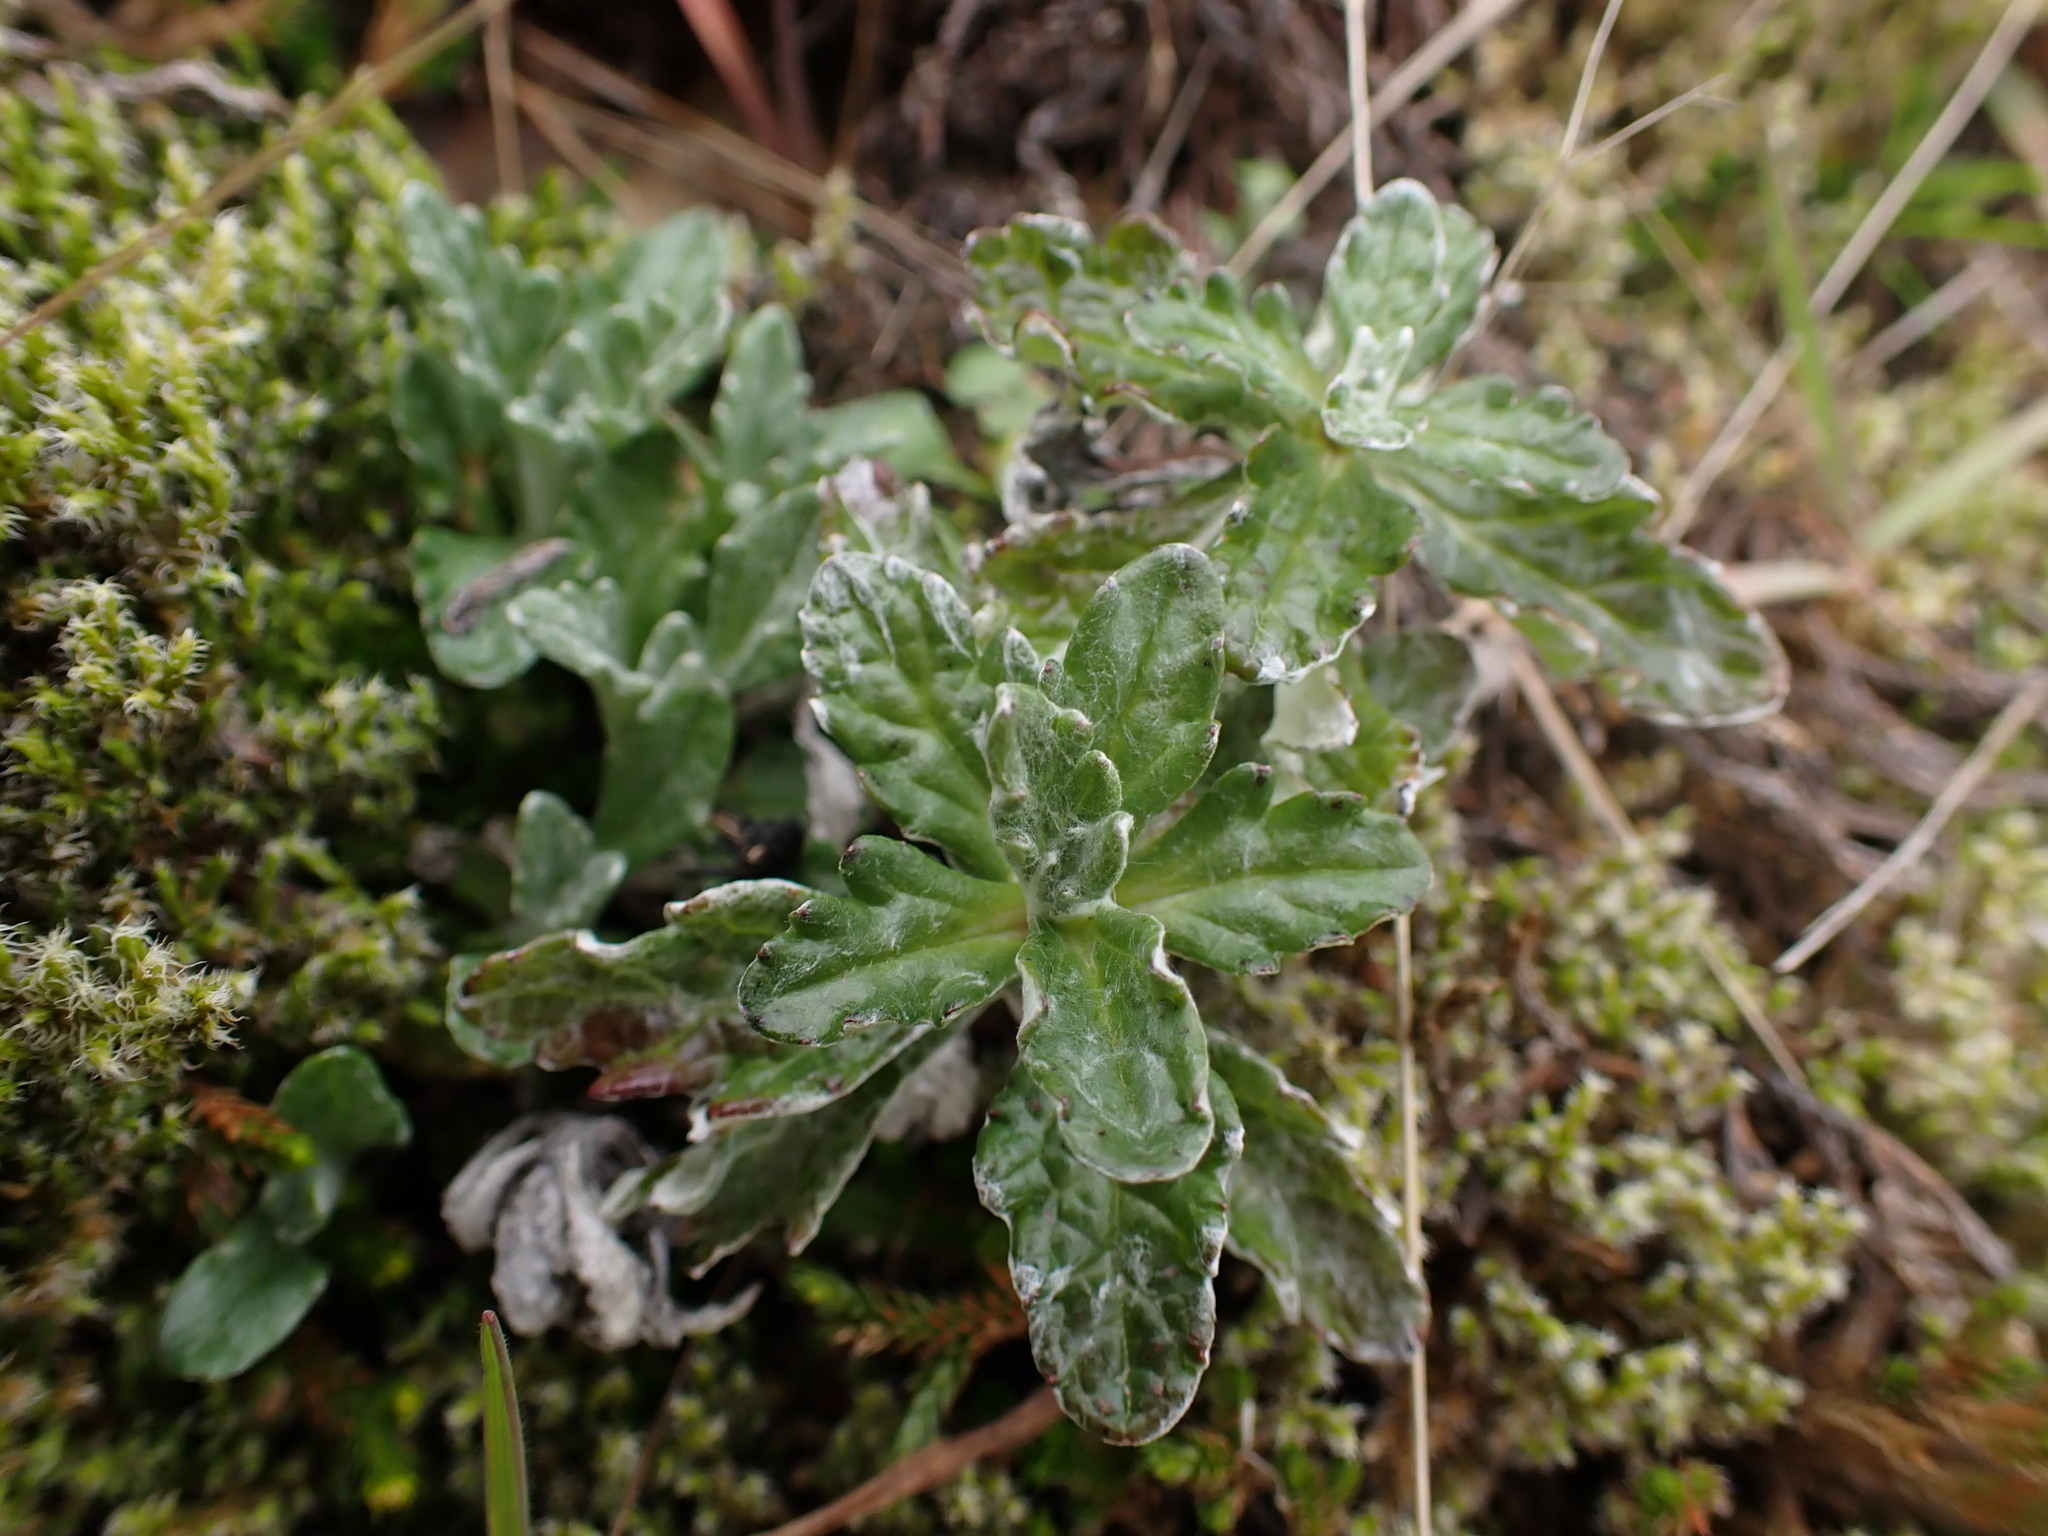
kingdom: Plantae
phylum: Tracheophyta
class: Magnoliopsida
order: Asterales
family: Asteraceae
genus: Eriophyllum
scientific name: Eriophyllum lanatum
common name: Common woolly-sunflower
